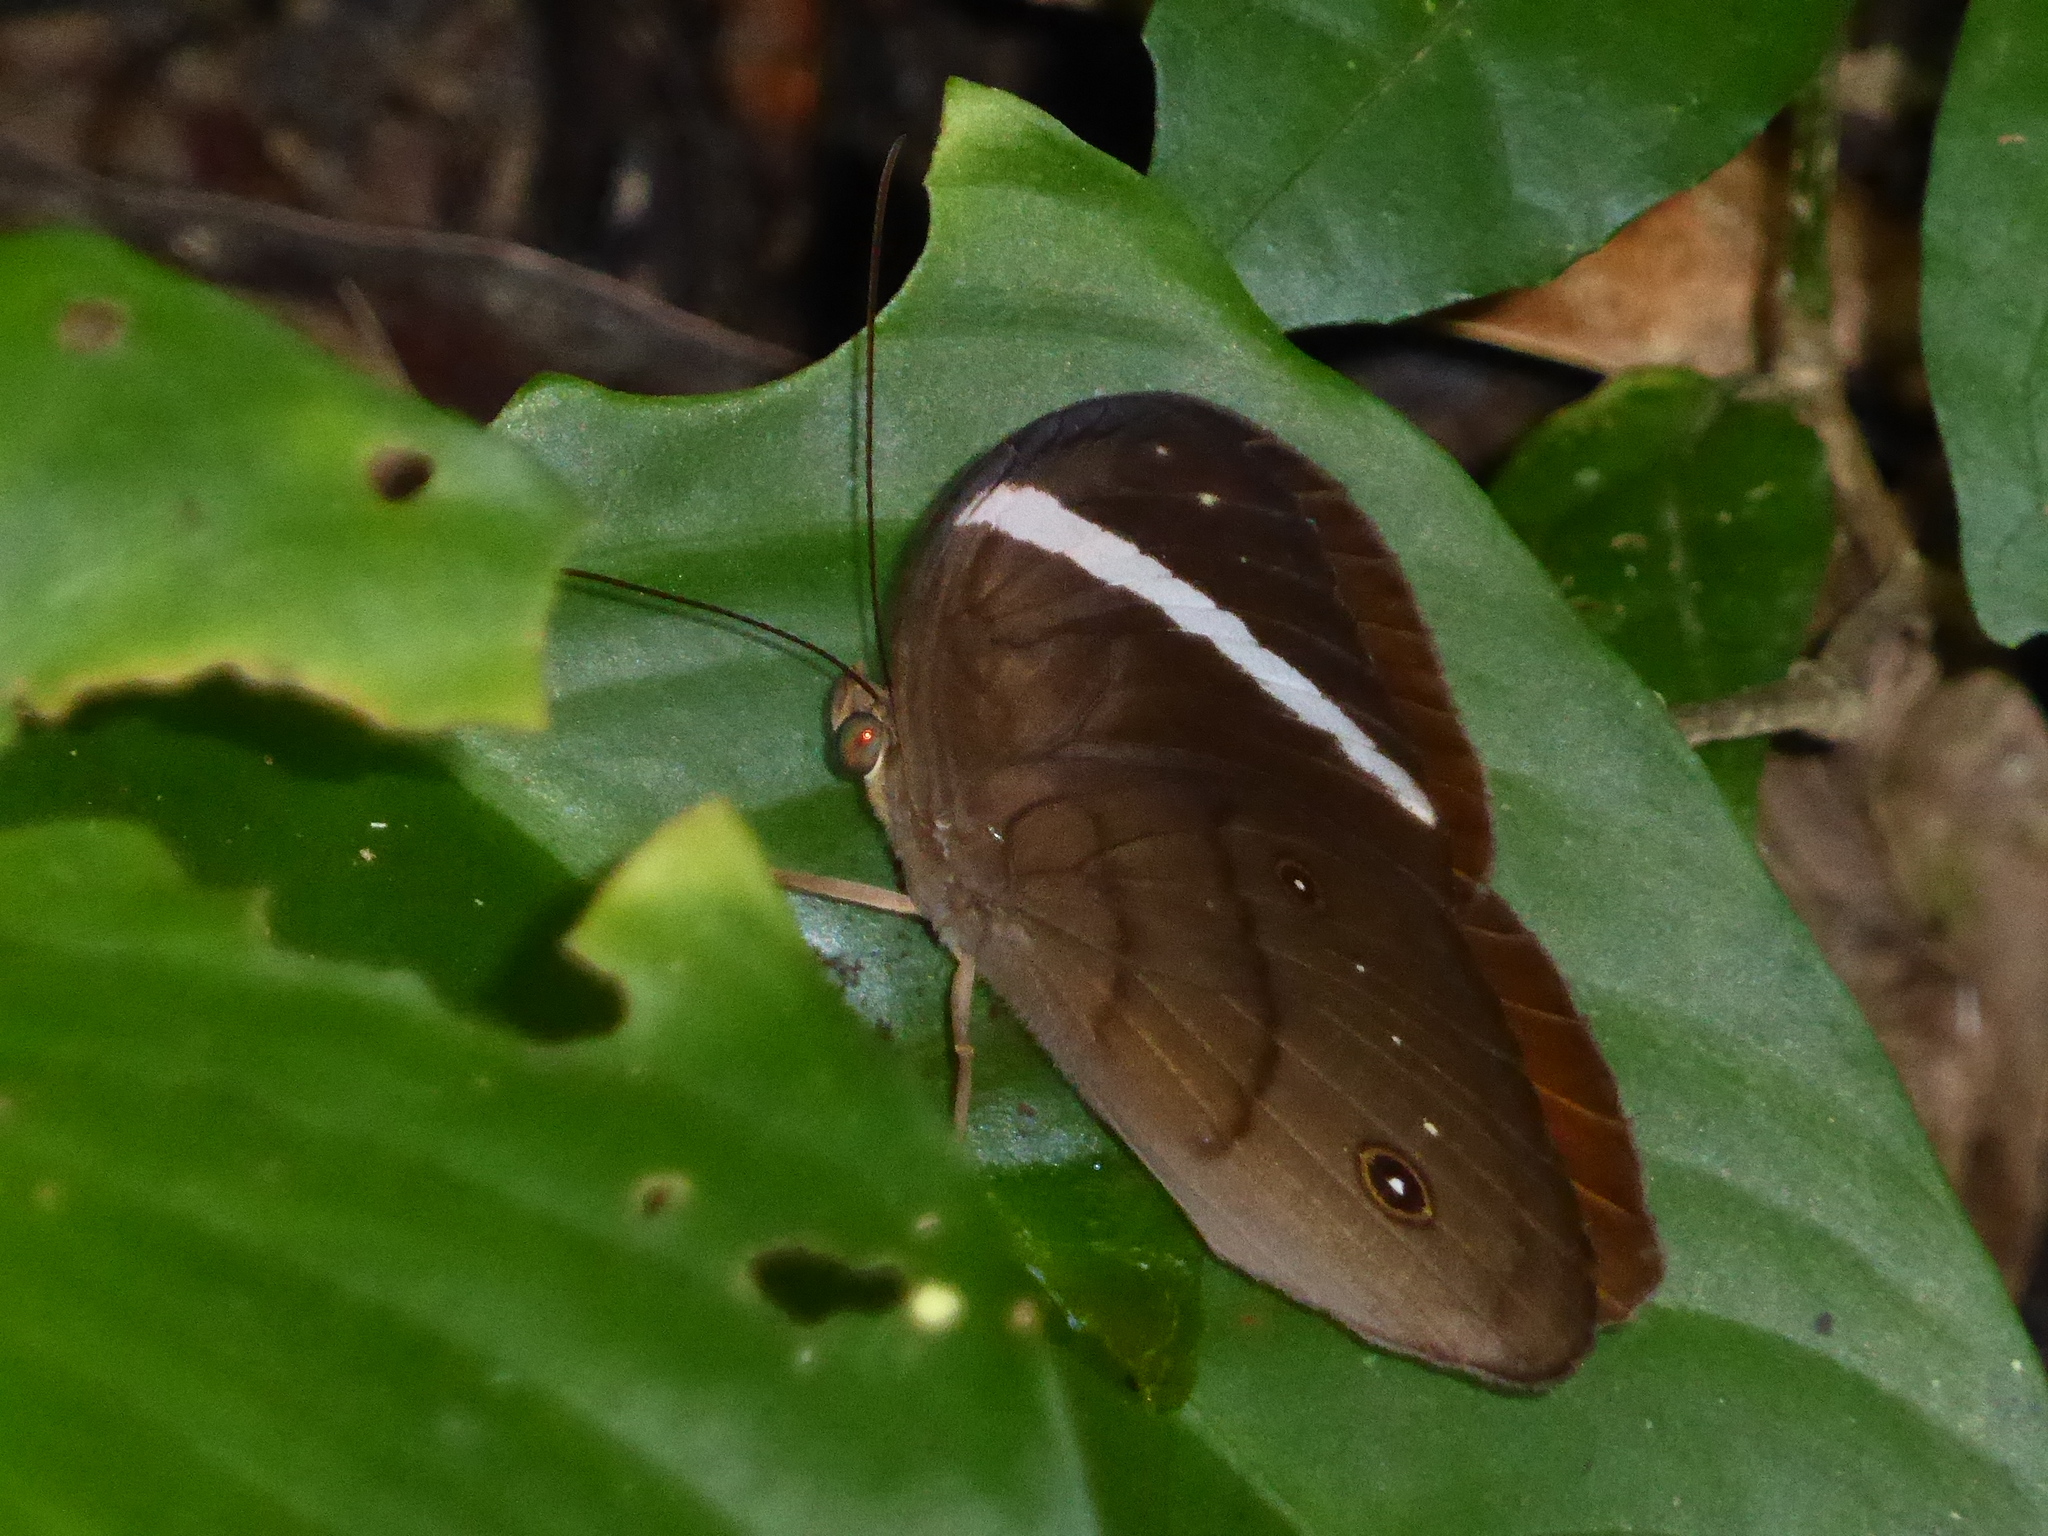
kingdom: Animalia
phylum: Arthropoda
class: Insecta
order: Lepidoptera
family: Nymphalidae
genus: Faunis
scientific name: Faunis stomphax
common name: Banded faun
